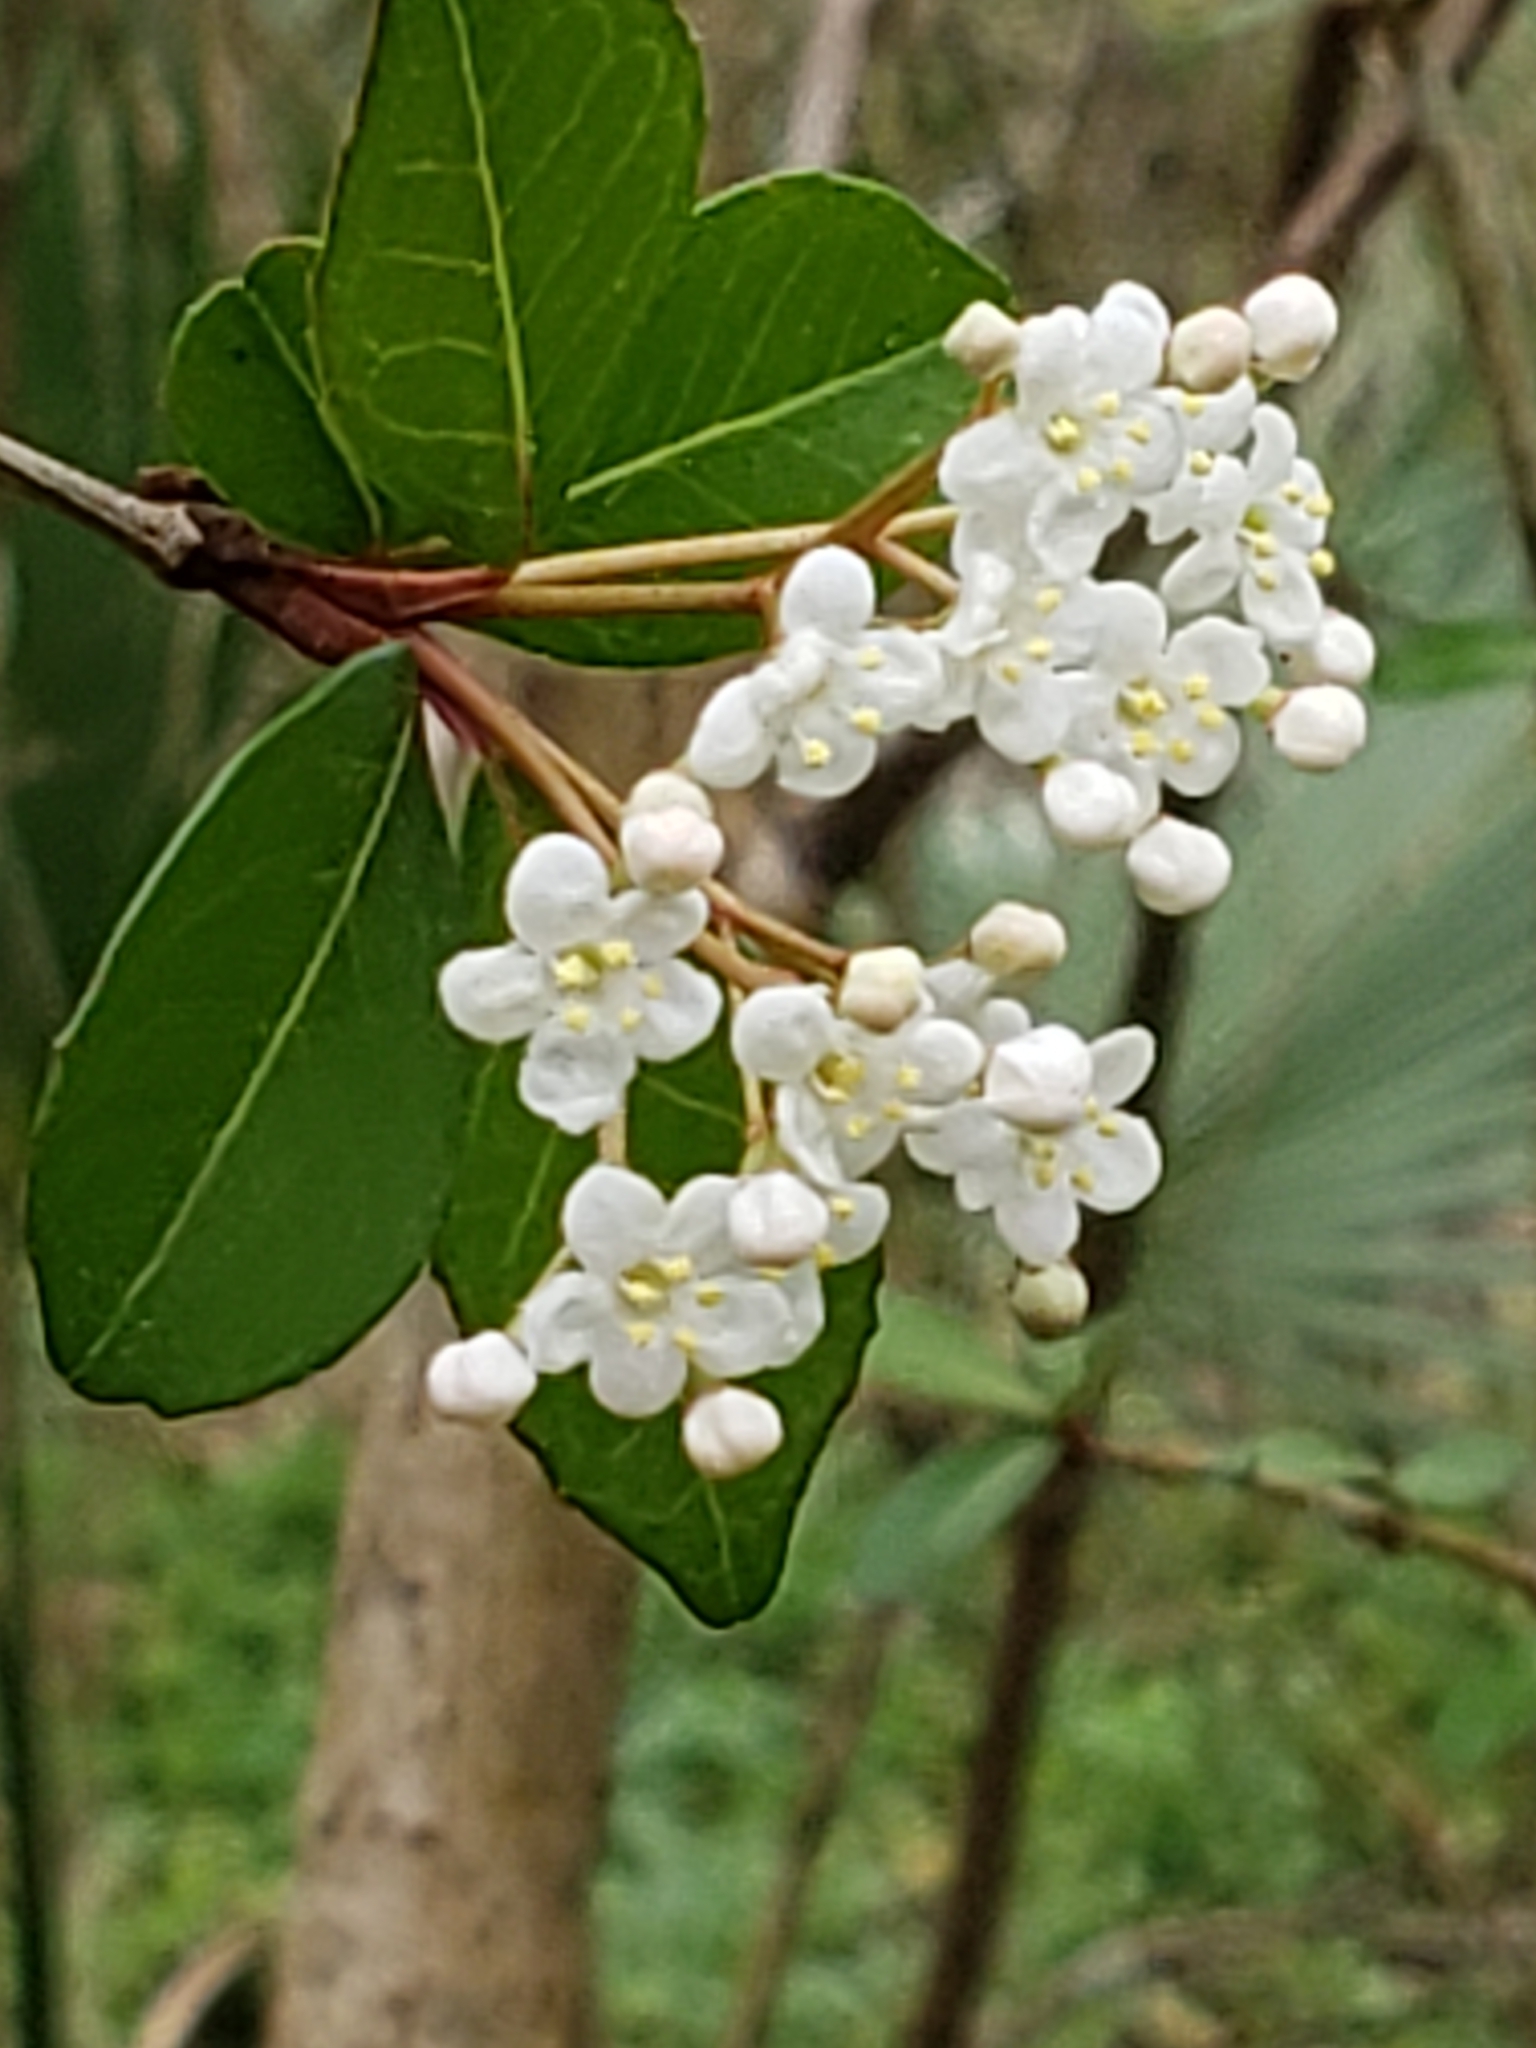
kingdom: Plantae
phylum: Tracheophyta
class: Magnoliopsida
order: Dipsacales
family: Viburnaceae
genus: Viburnum
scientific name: Viburnum obovatum
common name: Walter's viburnum
